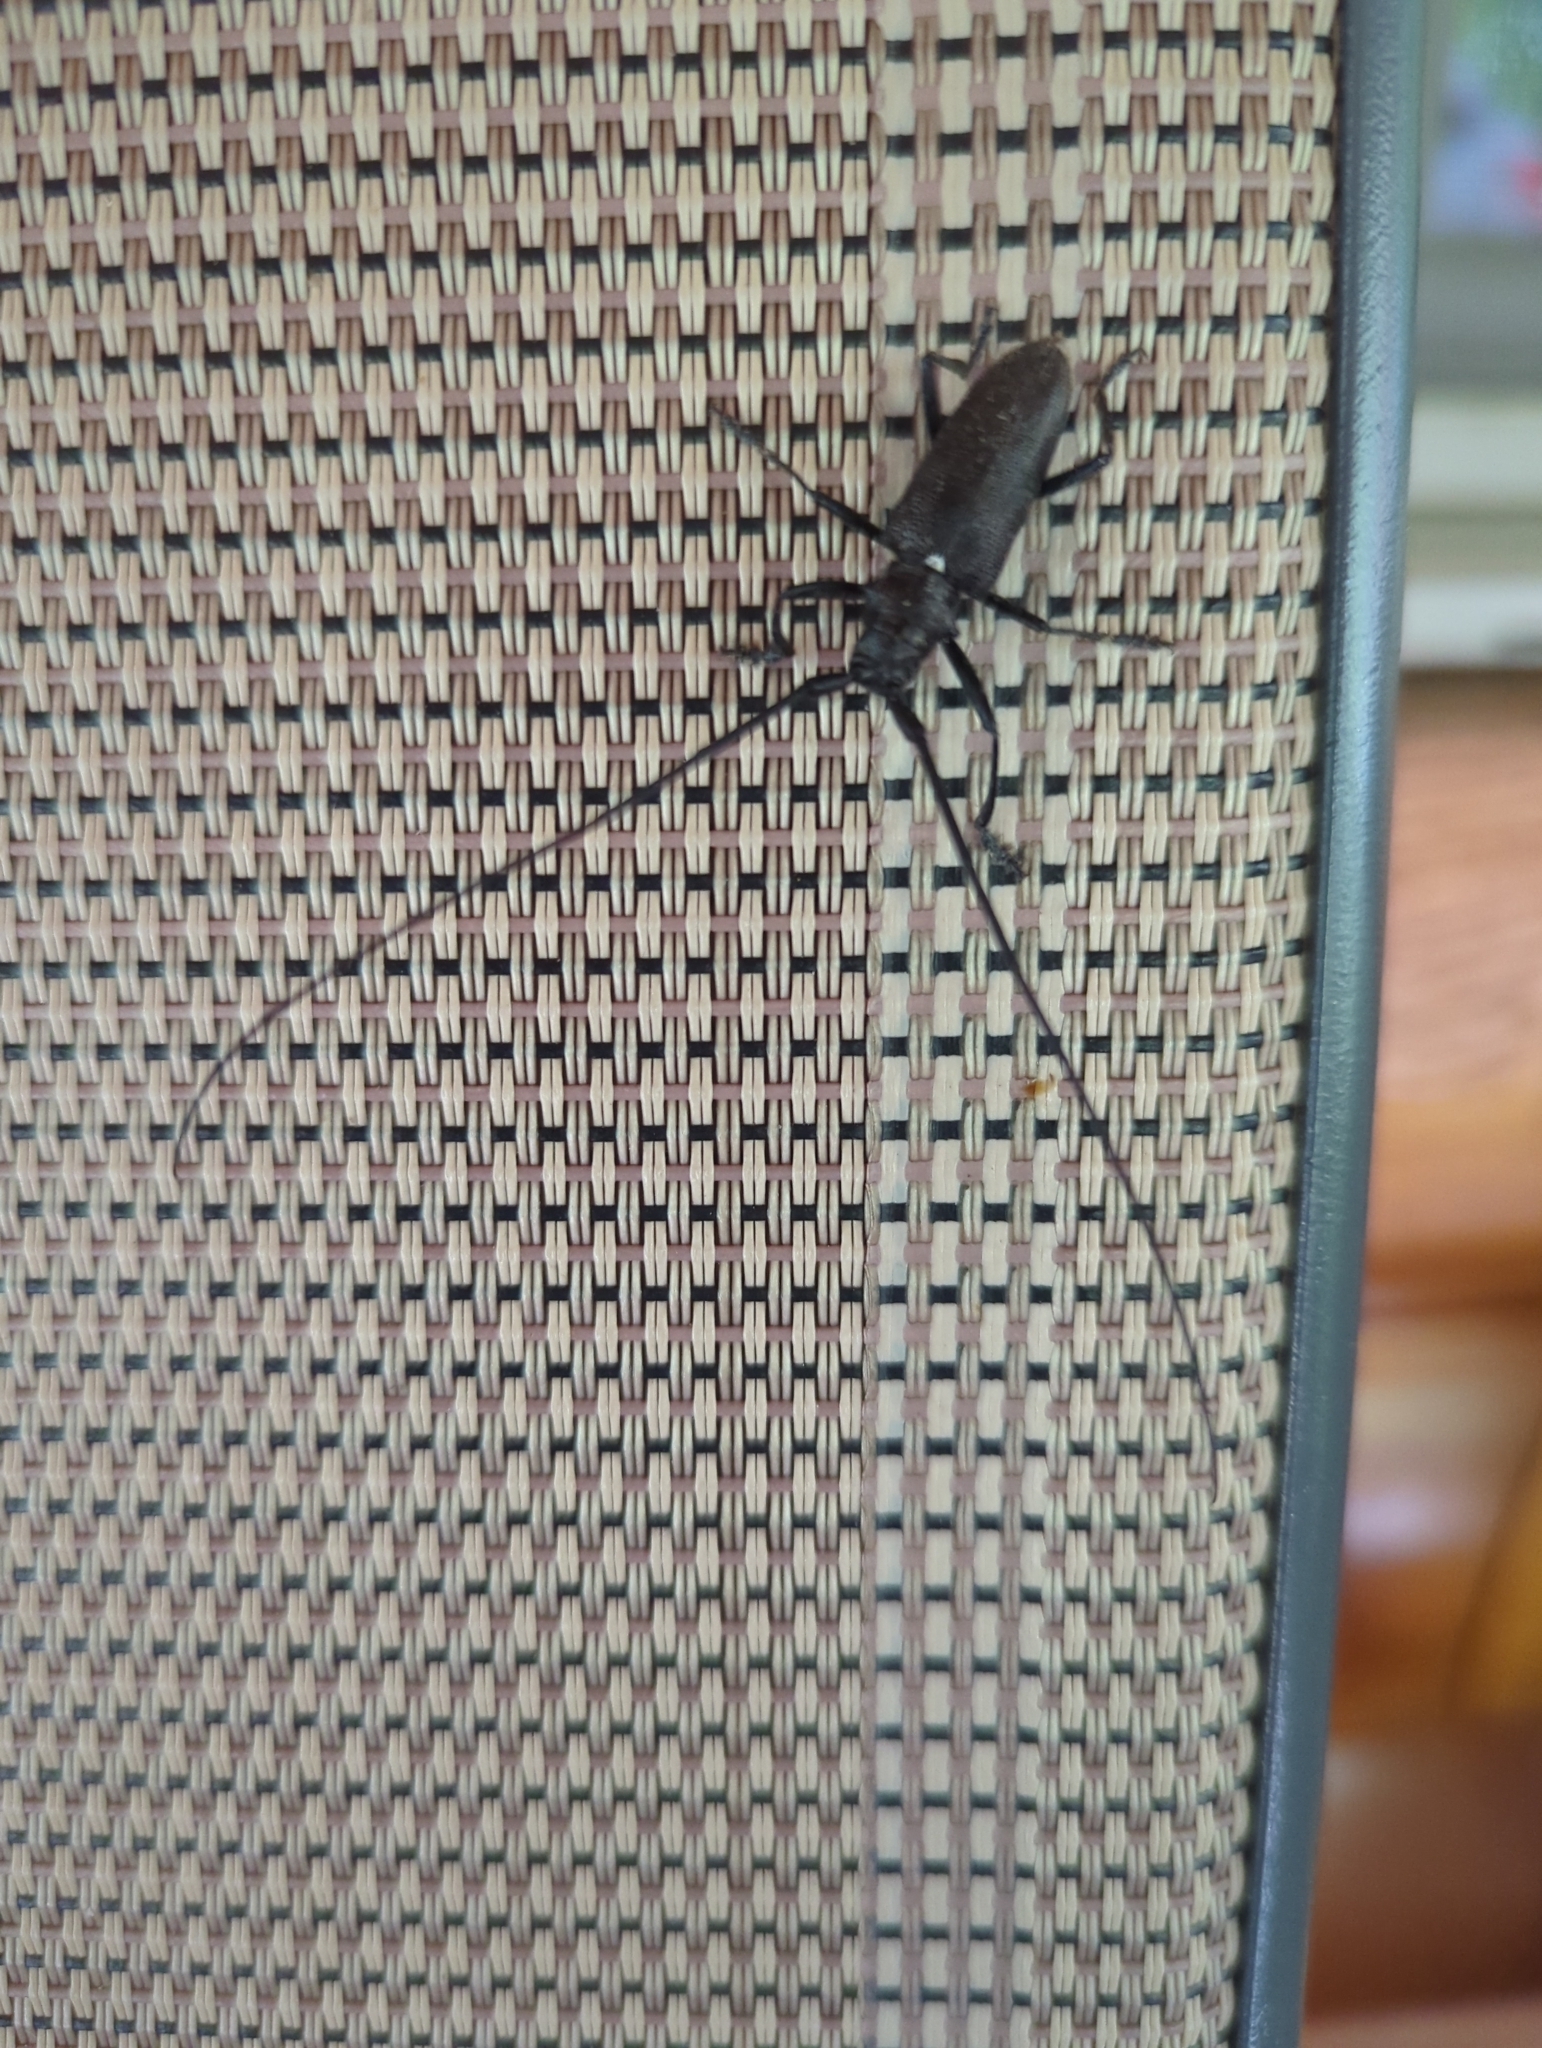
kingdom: Animalia
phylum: Arthropoda
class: Insecta
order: Coleoptera
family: Cerambycidae
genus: Monochamus
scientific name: Monochamus scutellatus
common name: White-spotted sawyer beetle
